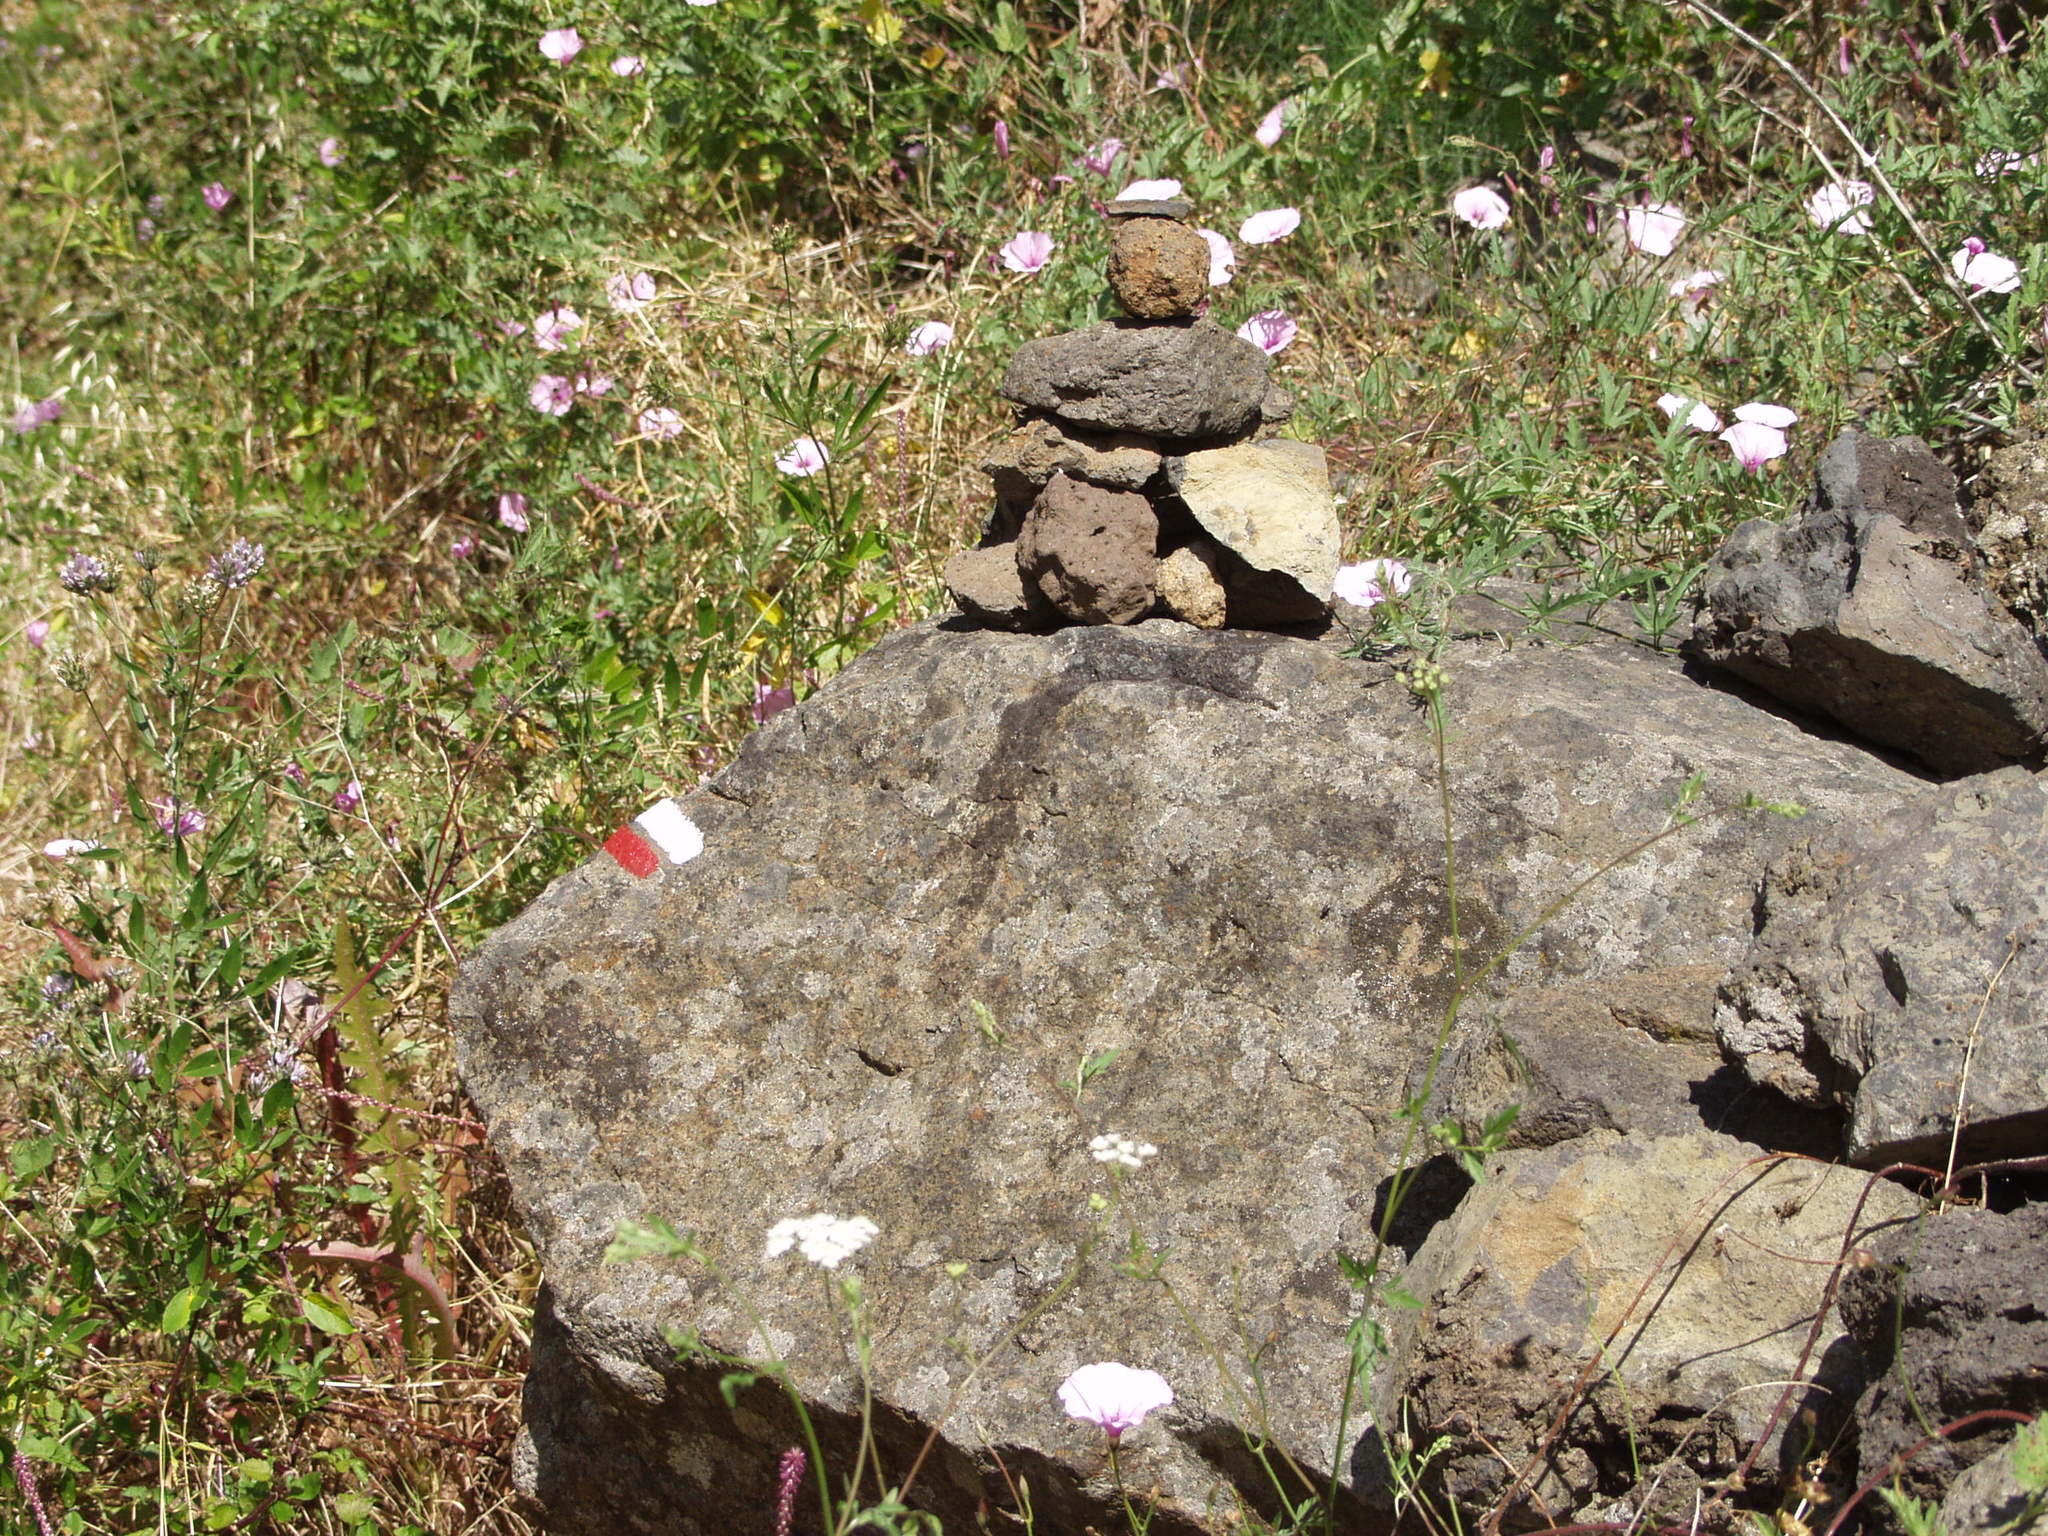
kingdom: Plantae
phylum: Tracheophyta
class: Magnoliopsida
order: Solanales
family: Convolvulaceae
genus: Convolvulus
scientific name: Convolvulus althaeoides
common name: Mallow bindweed
